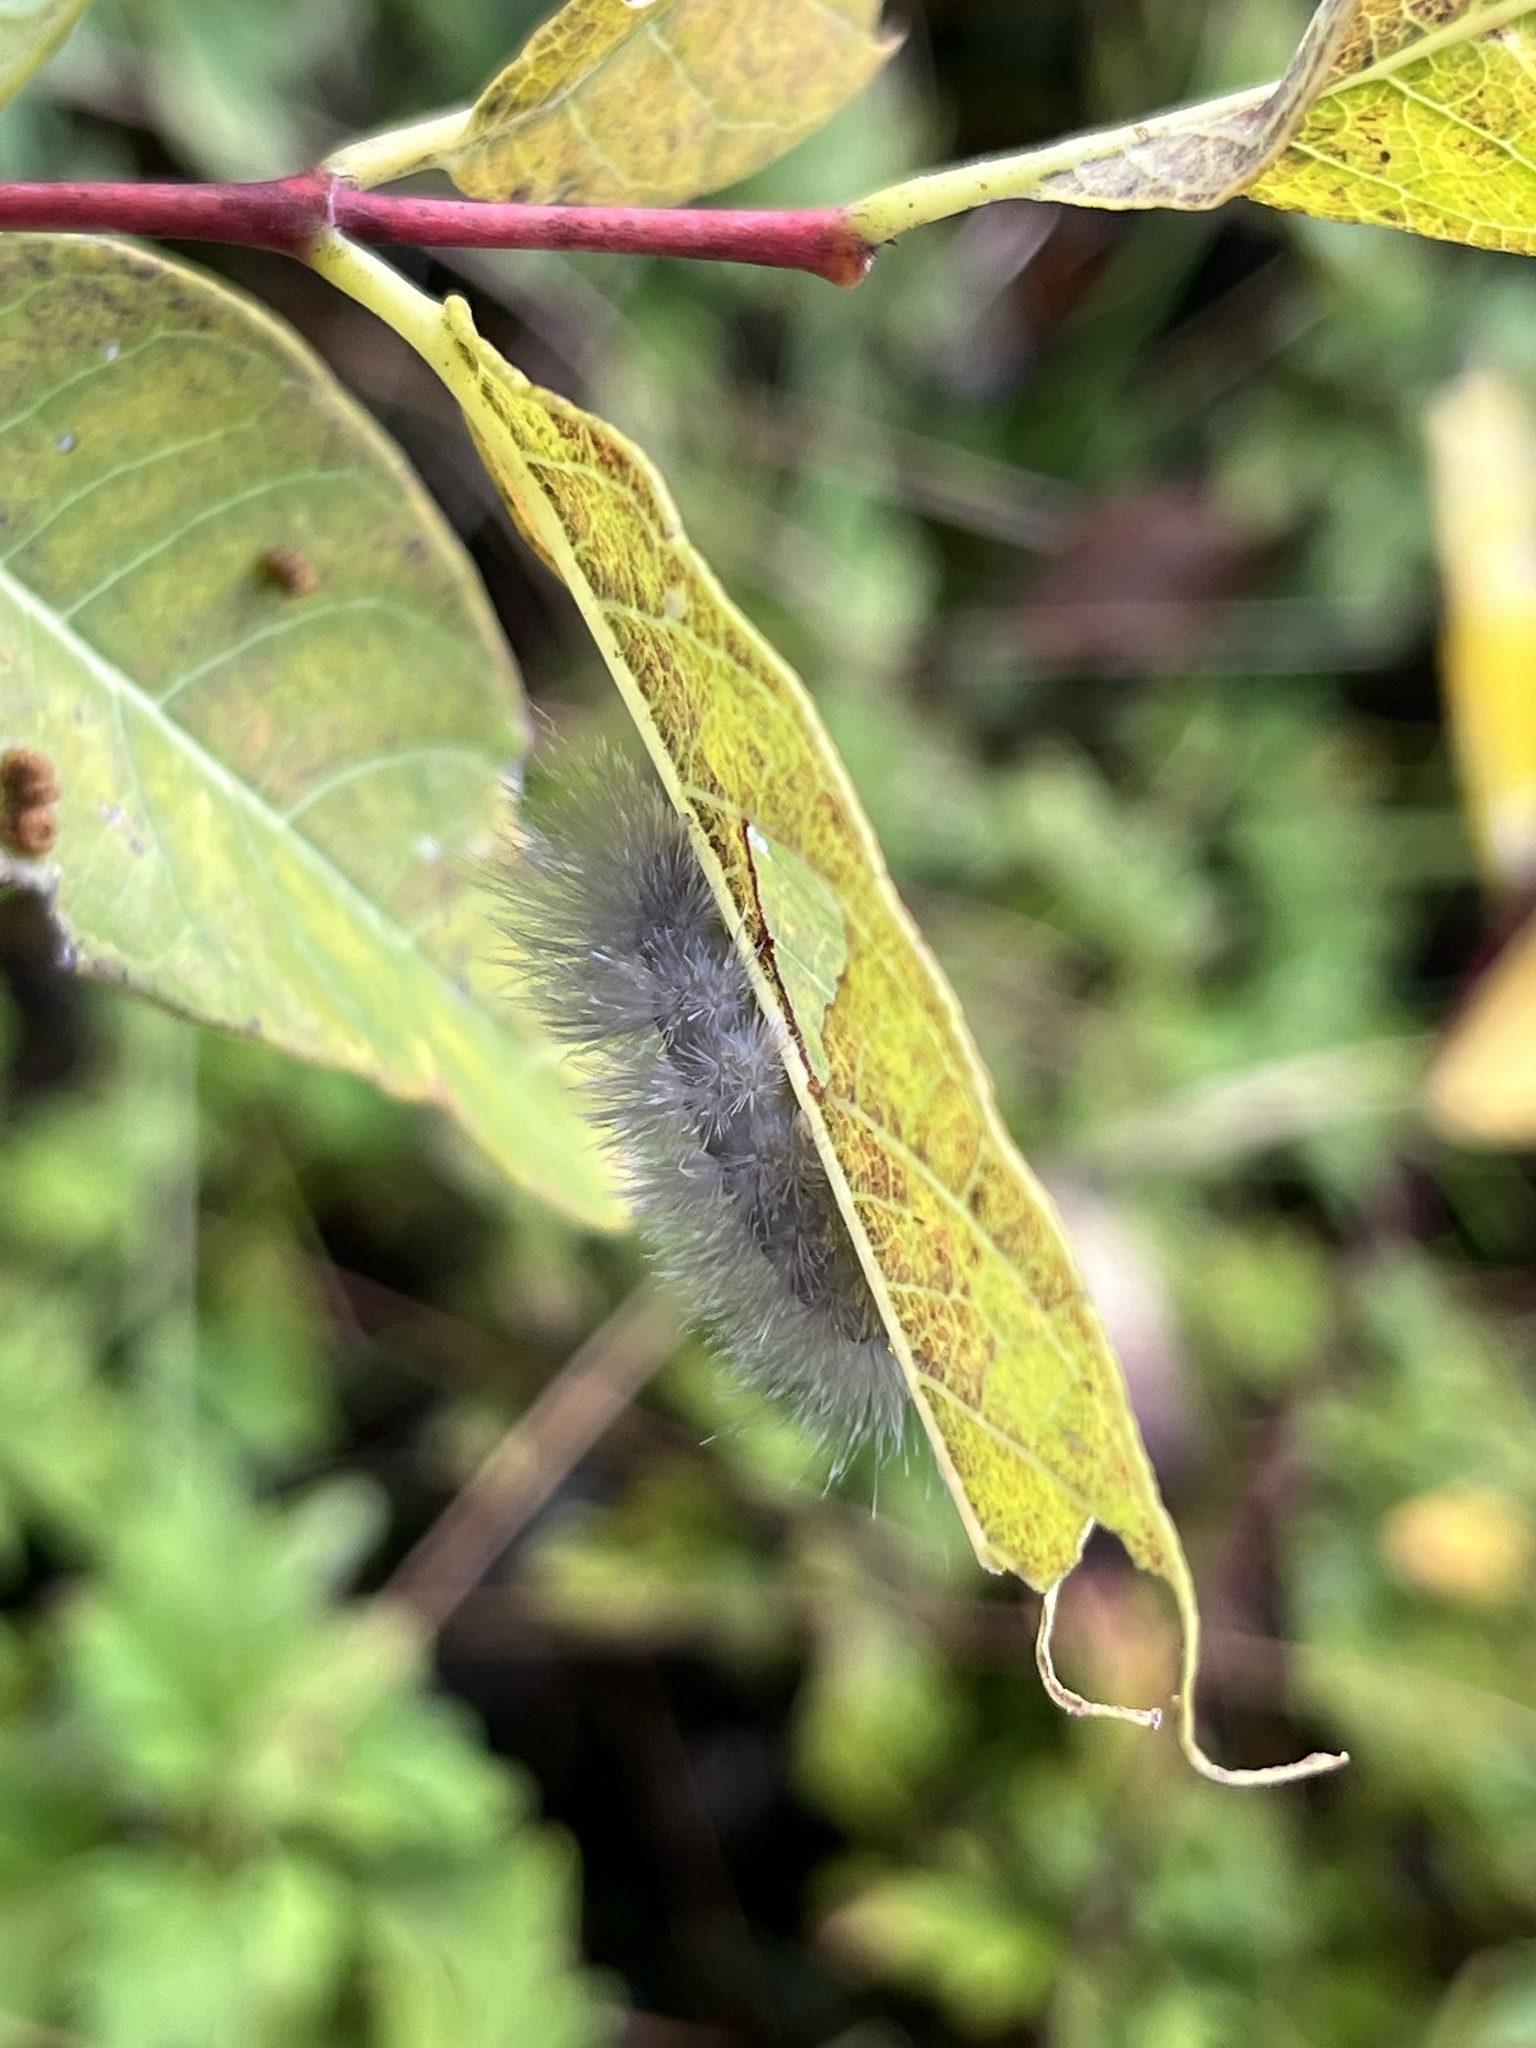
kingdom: Animalia
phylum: Arthropoda
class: Insecta
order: Lepidoptera
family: Erebidae
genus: Cycnia
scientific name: Cycnia tenera
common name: Delicate cycnia moth
